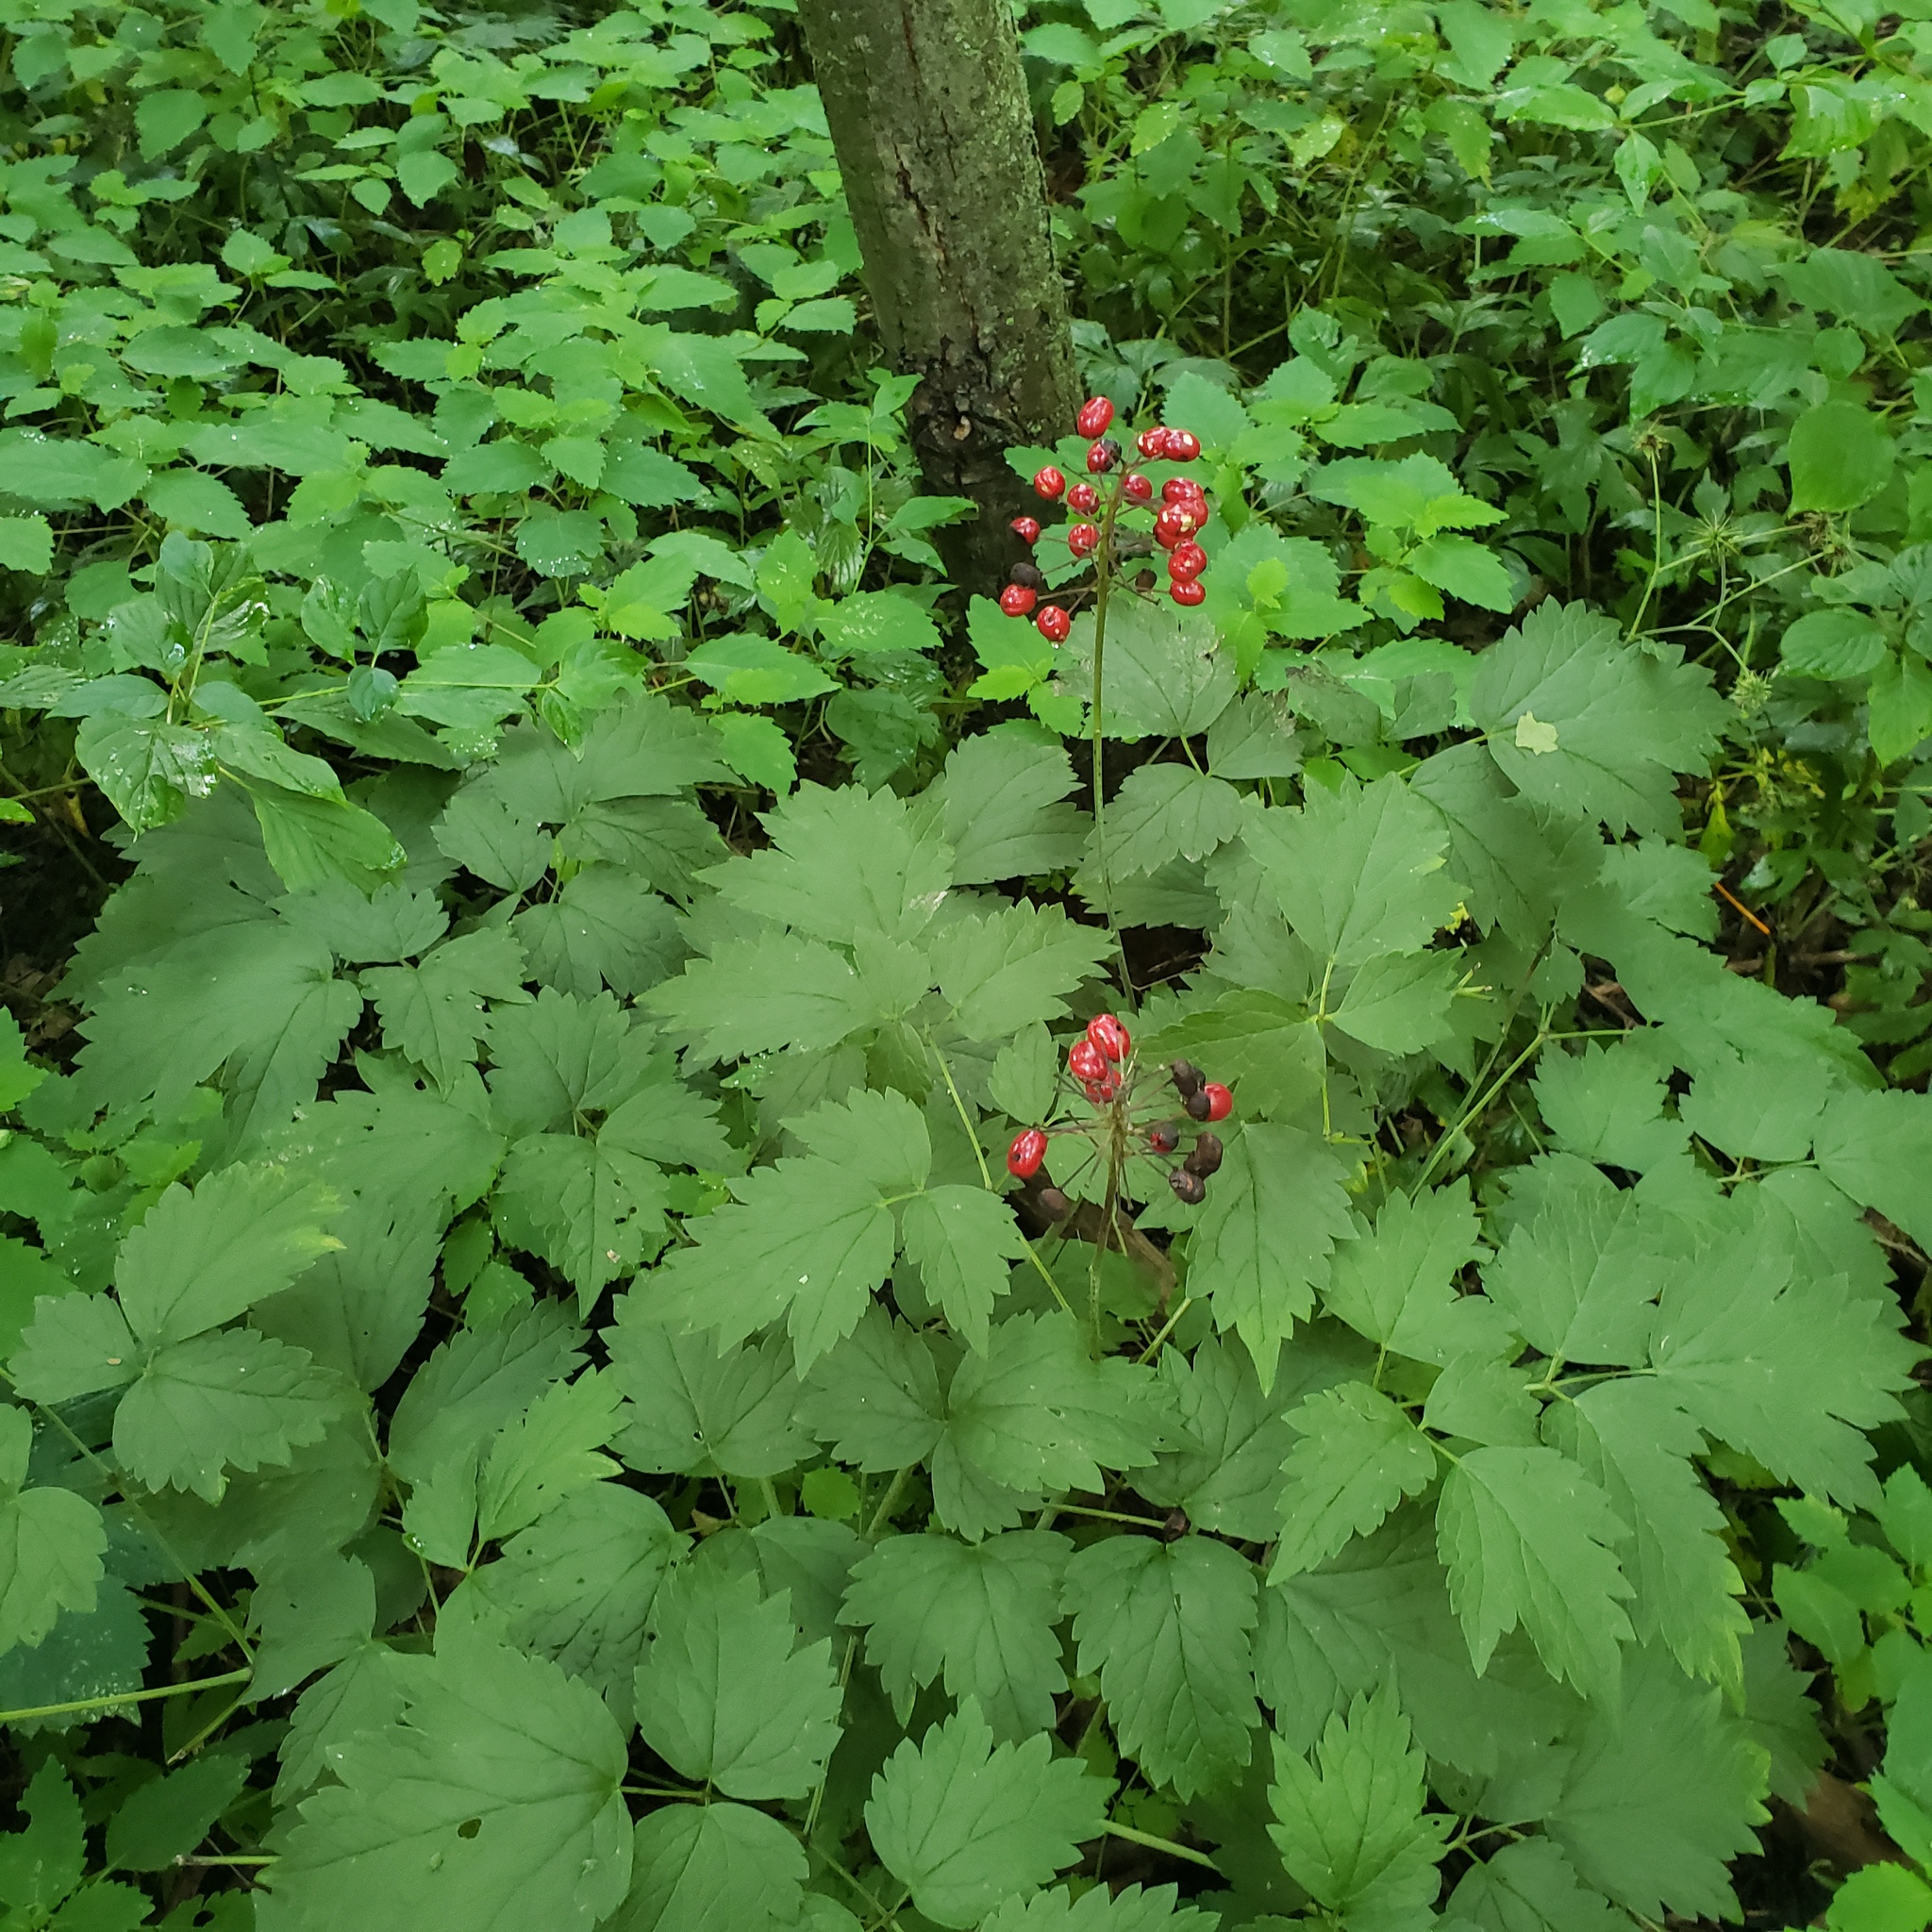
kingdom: Plantae
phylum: Tracheophyta
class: Magnoliopsida
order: Ranunculales
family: Ranunculaceae
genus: Actaea
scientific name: Actaea rubra
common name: Red baneberry
